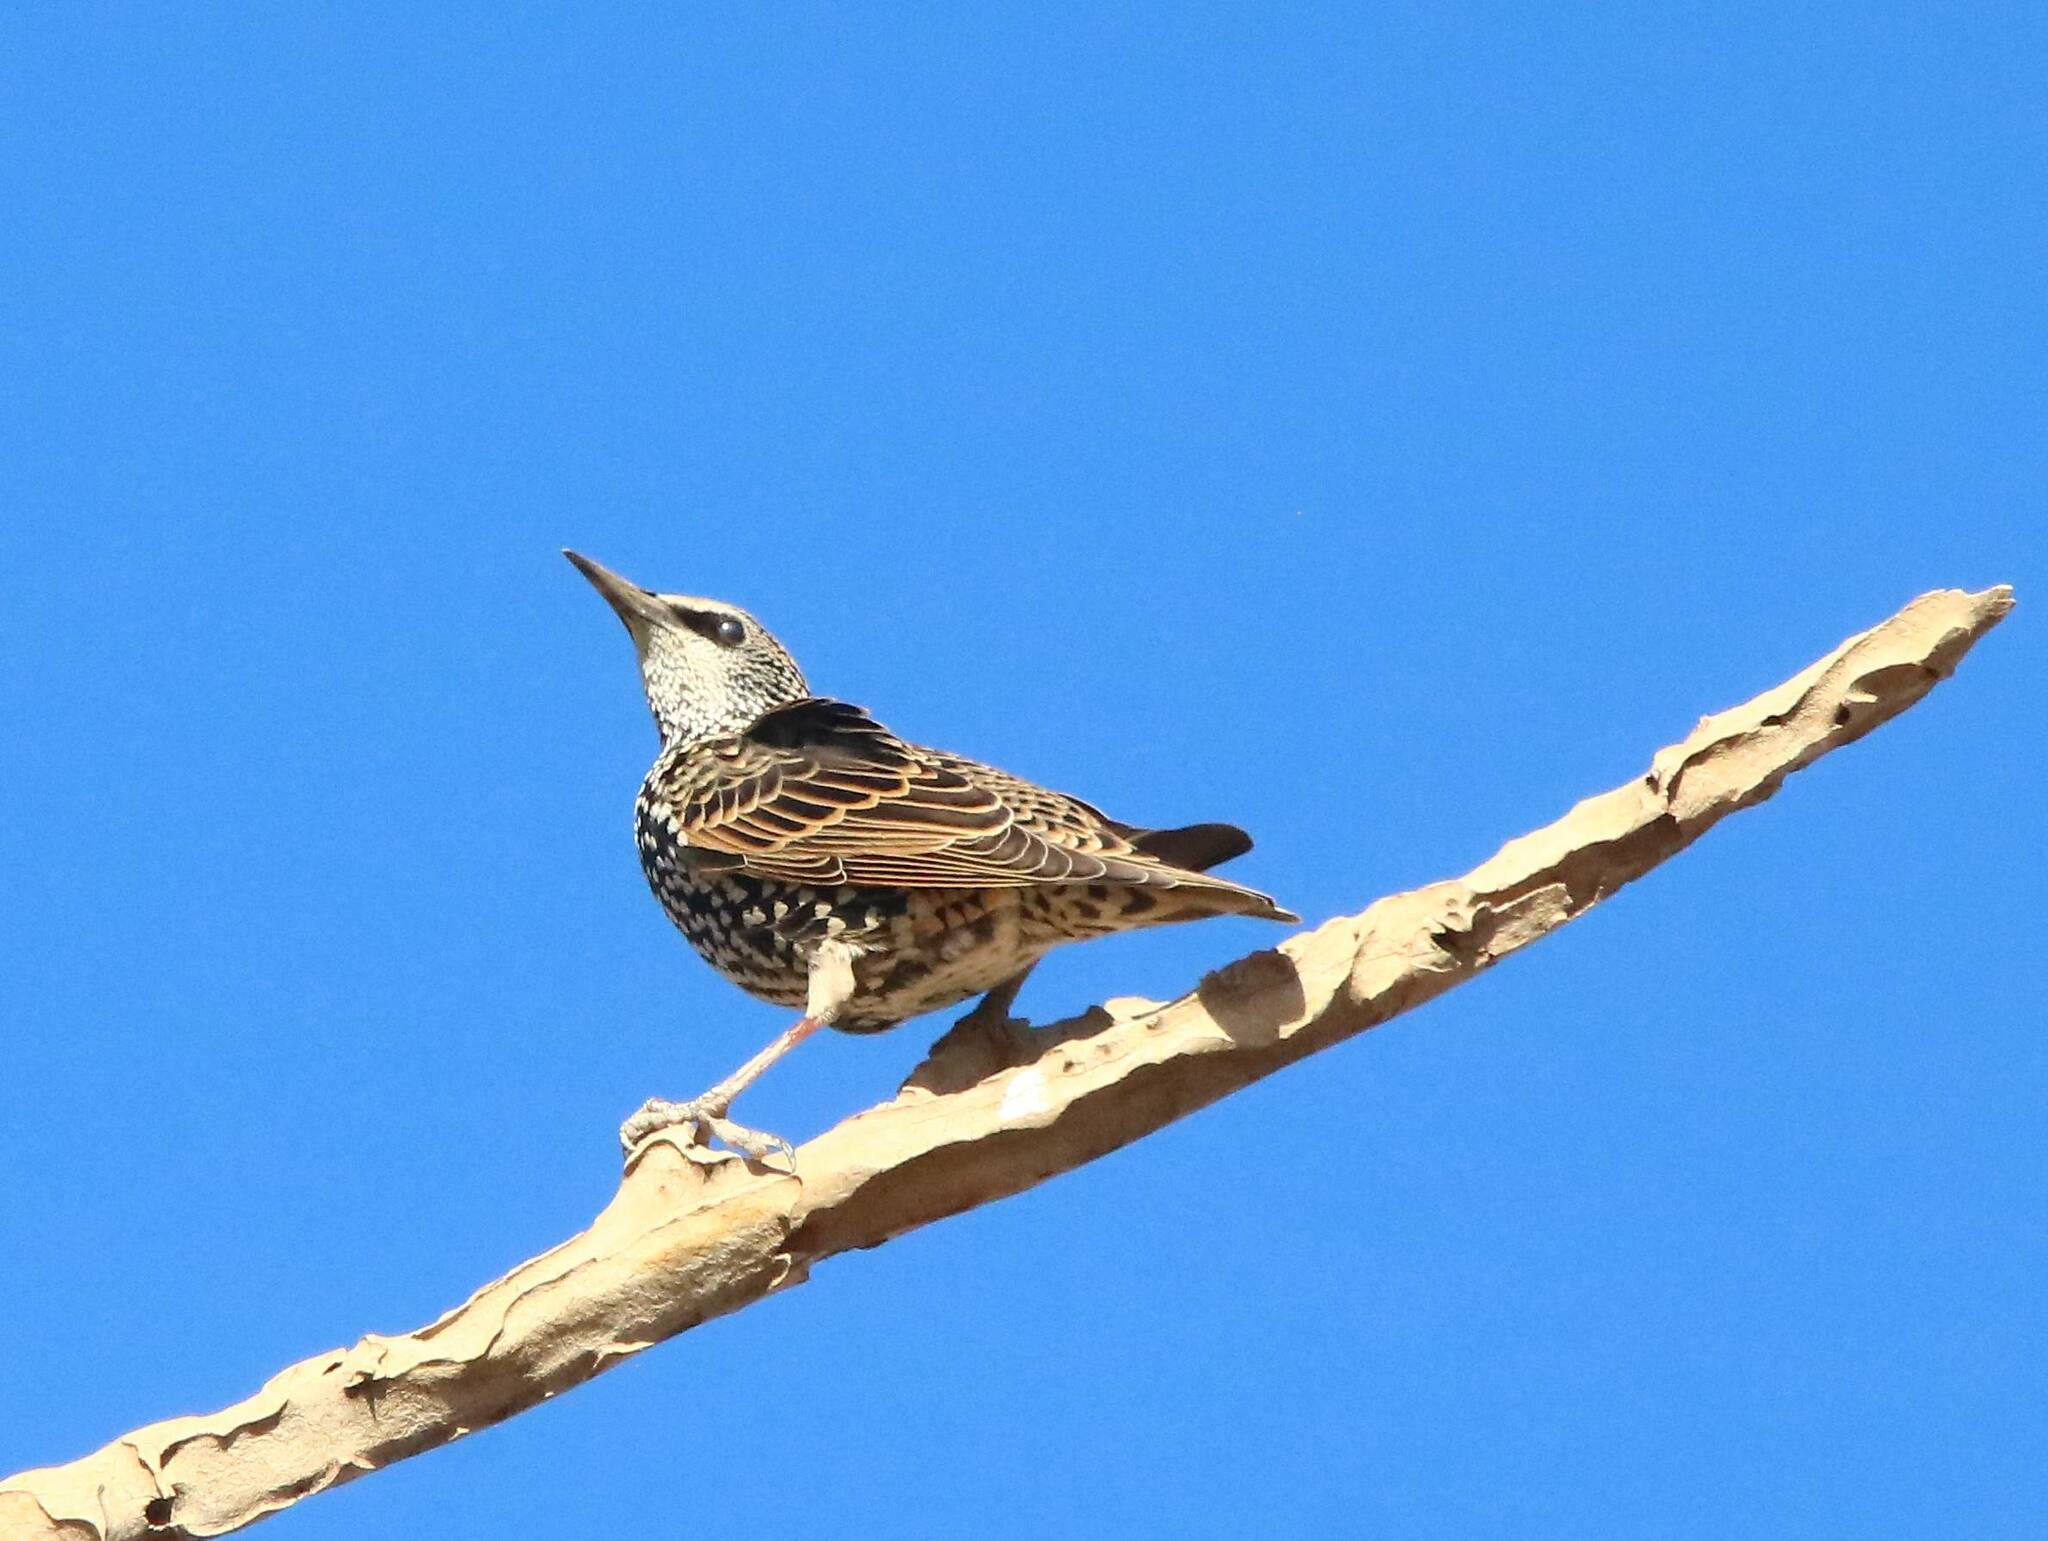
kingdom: Animalia
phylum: Chordata
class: Aves
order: Passeriformes
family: Sturnidae
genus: Sturnus
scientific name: Sturnus vulgaris
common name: Common starling
